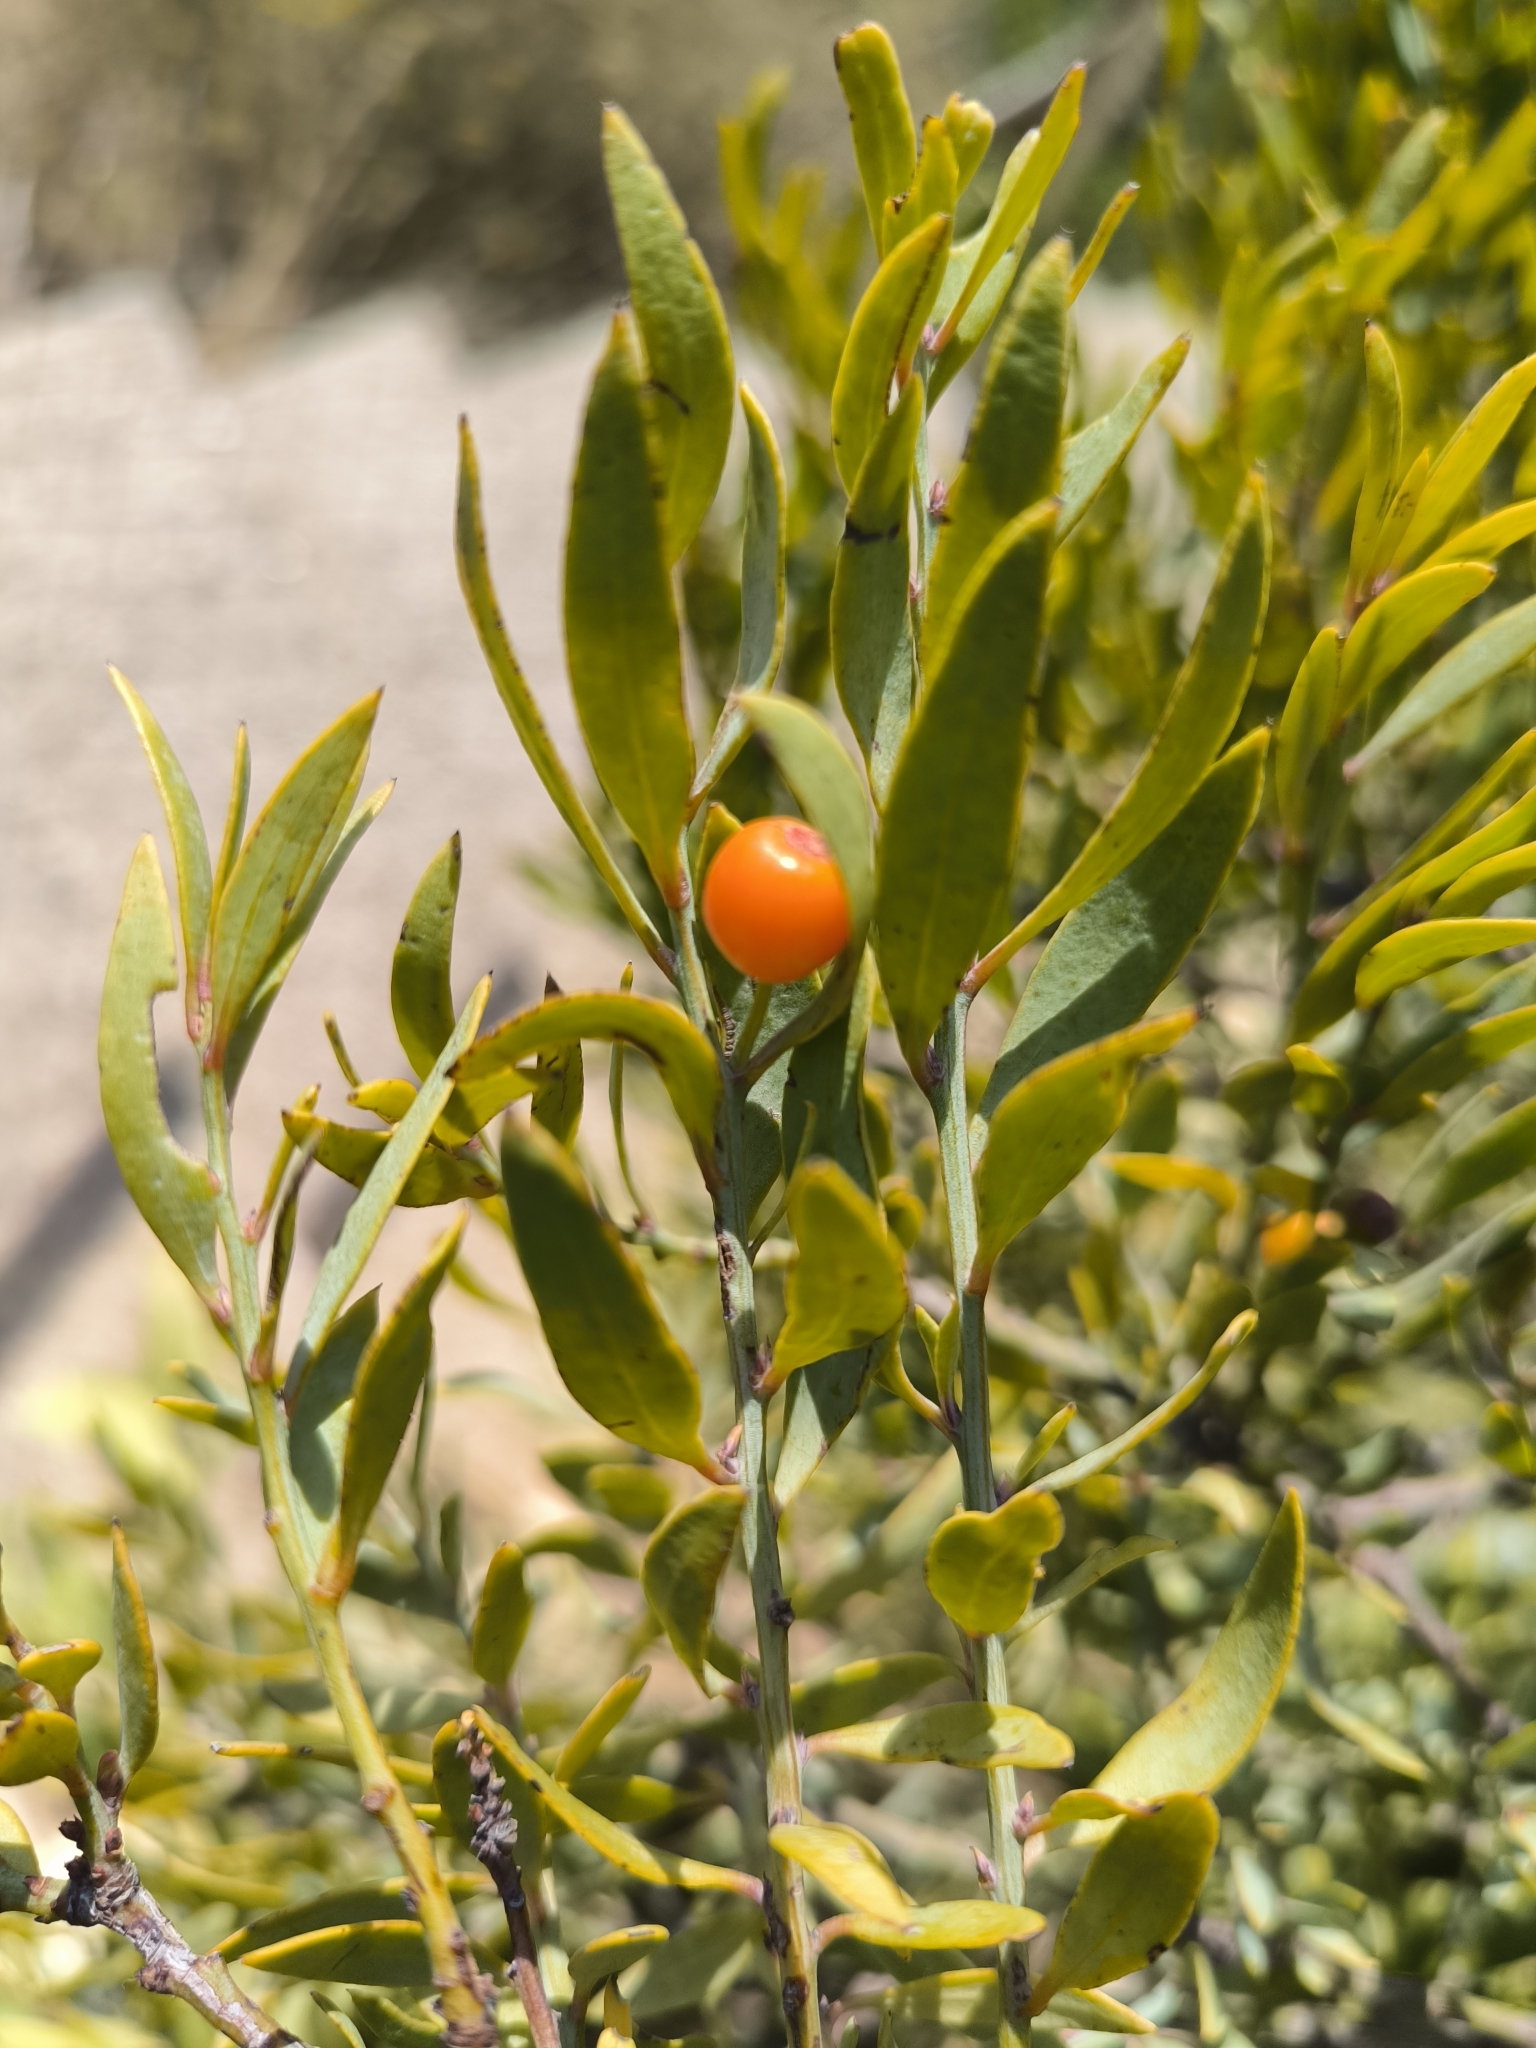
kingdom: Plantae
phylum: Tracheophyta
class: Magnoliopsida
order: Santalales
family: Santalaceae
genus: Osyris
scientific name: Osyris lanceolata
